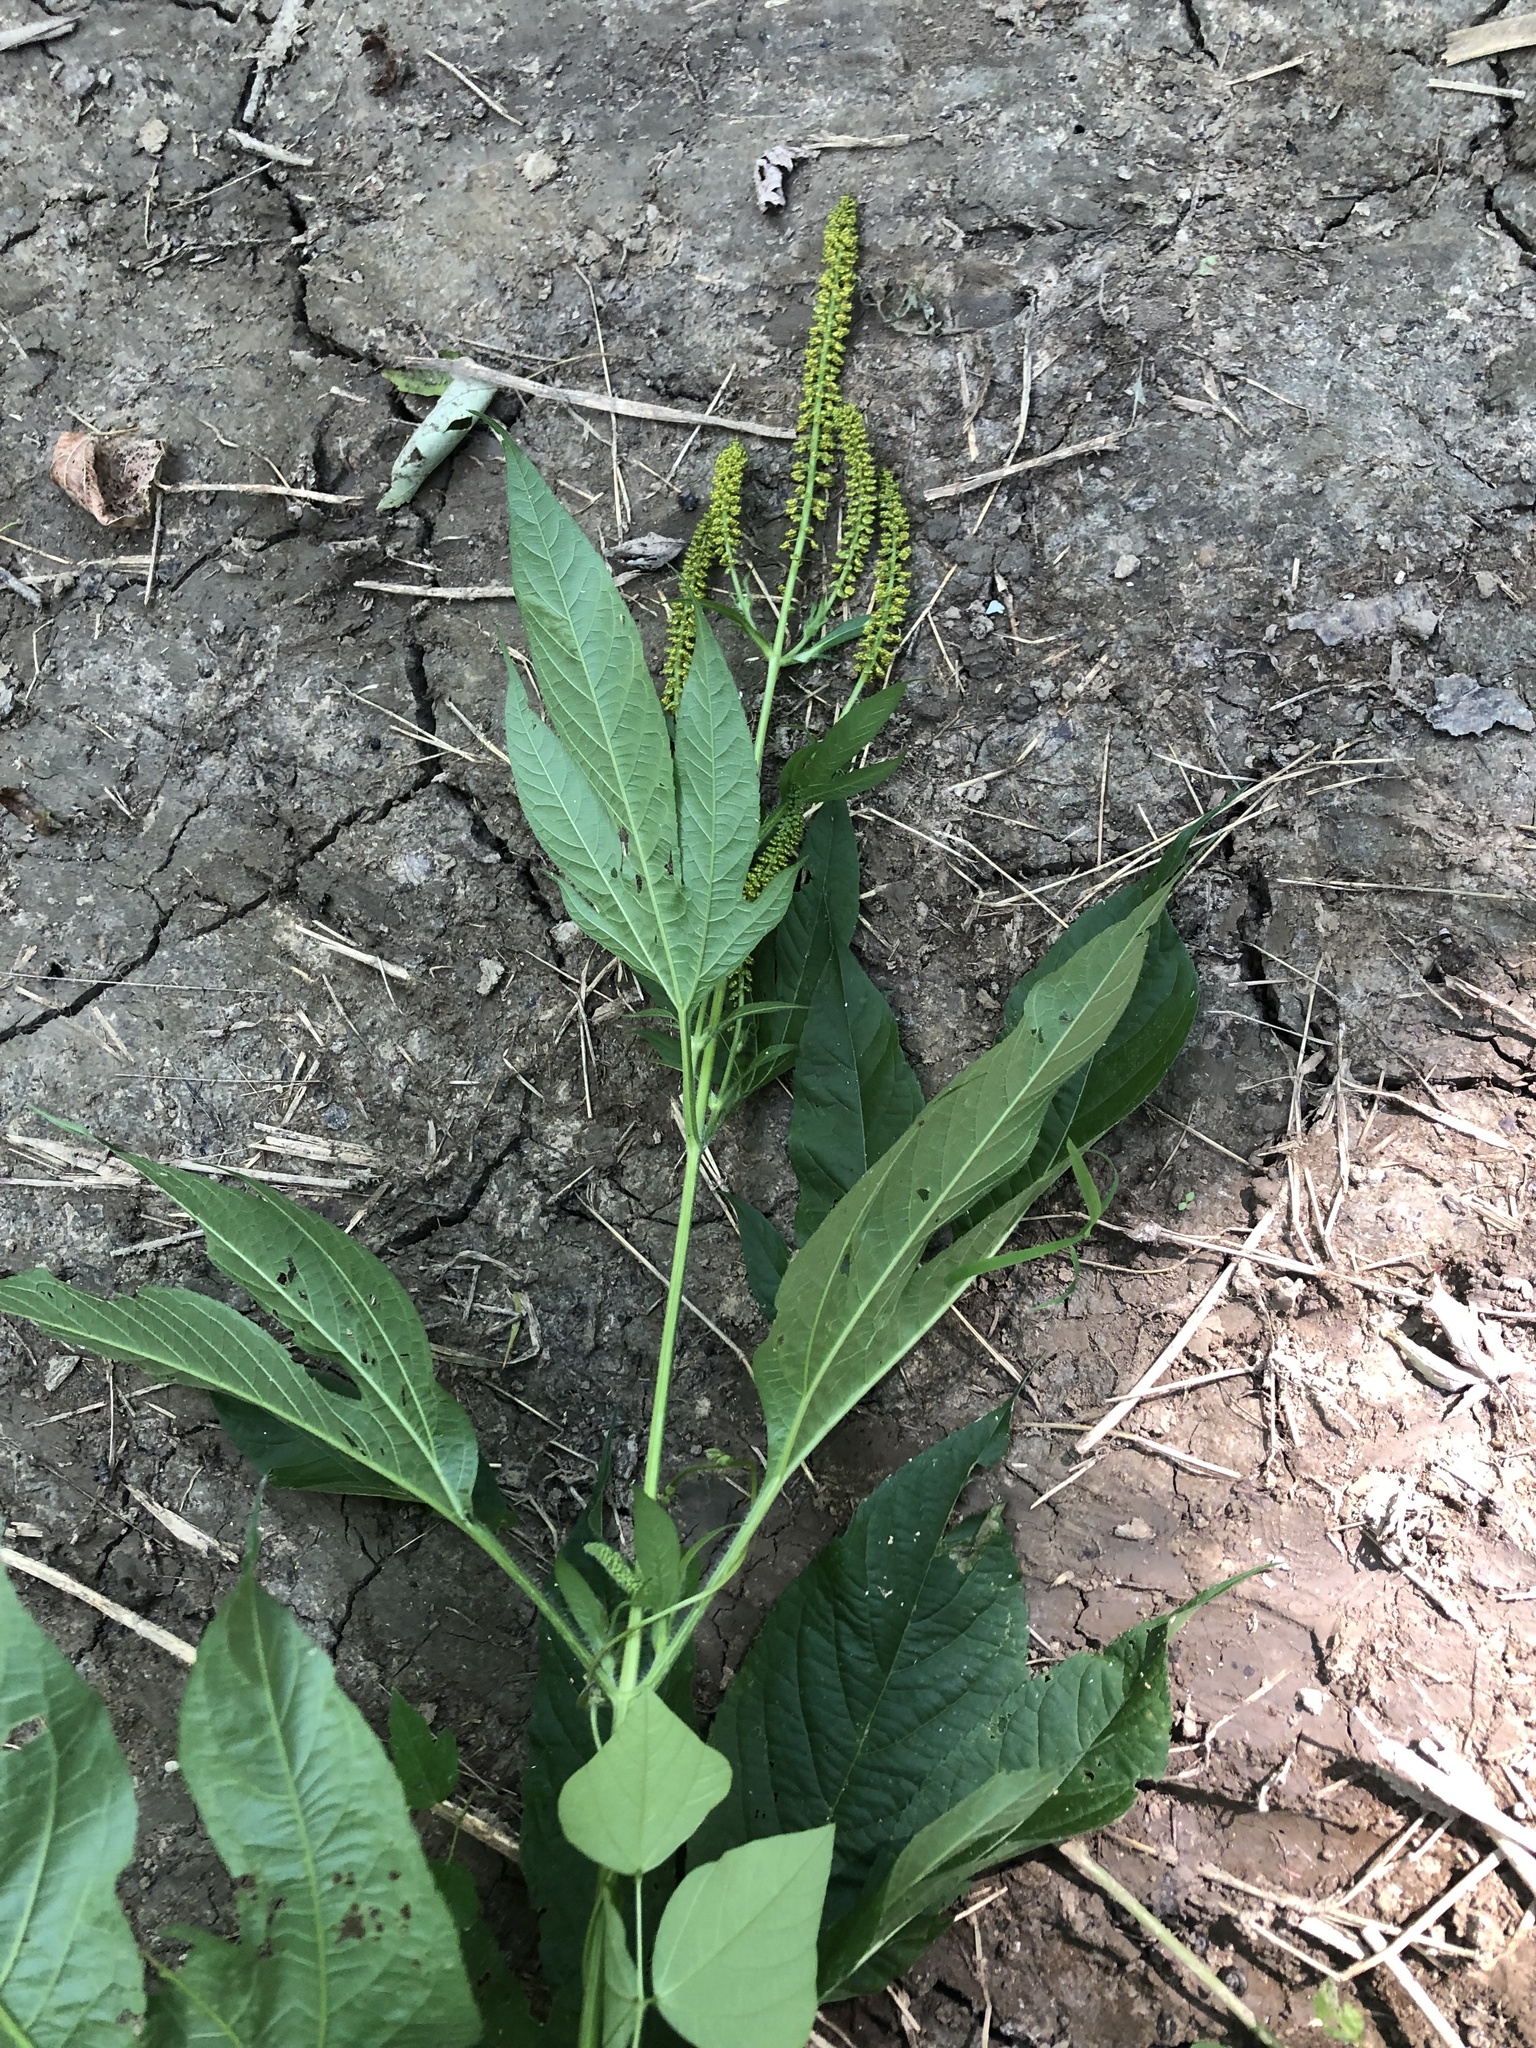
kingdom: Plantae
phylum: Tracheophyta
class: Magnoliopsida
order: Asterales
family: Asteraceae
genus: Ambrosia
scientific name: Ambrosia trifida
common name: Giant ragweed
